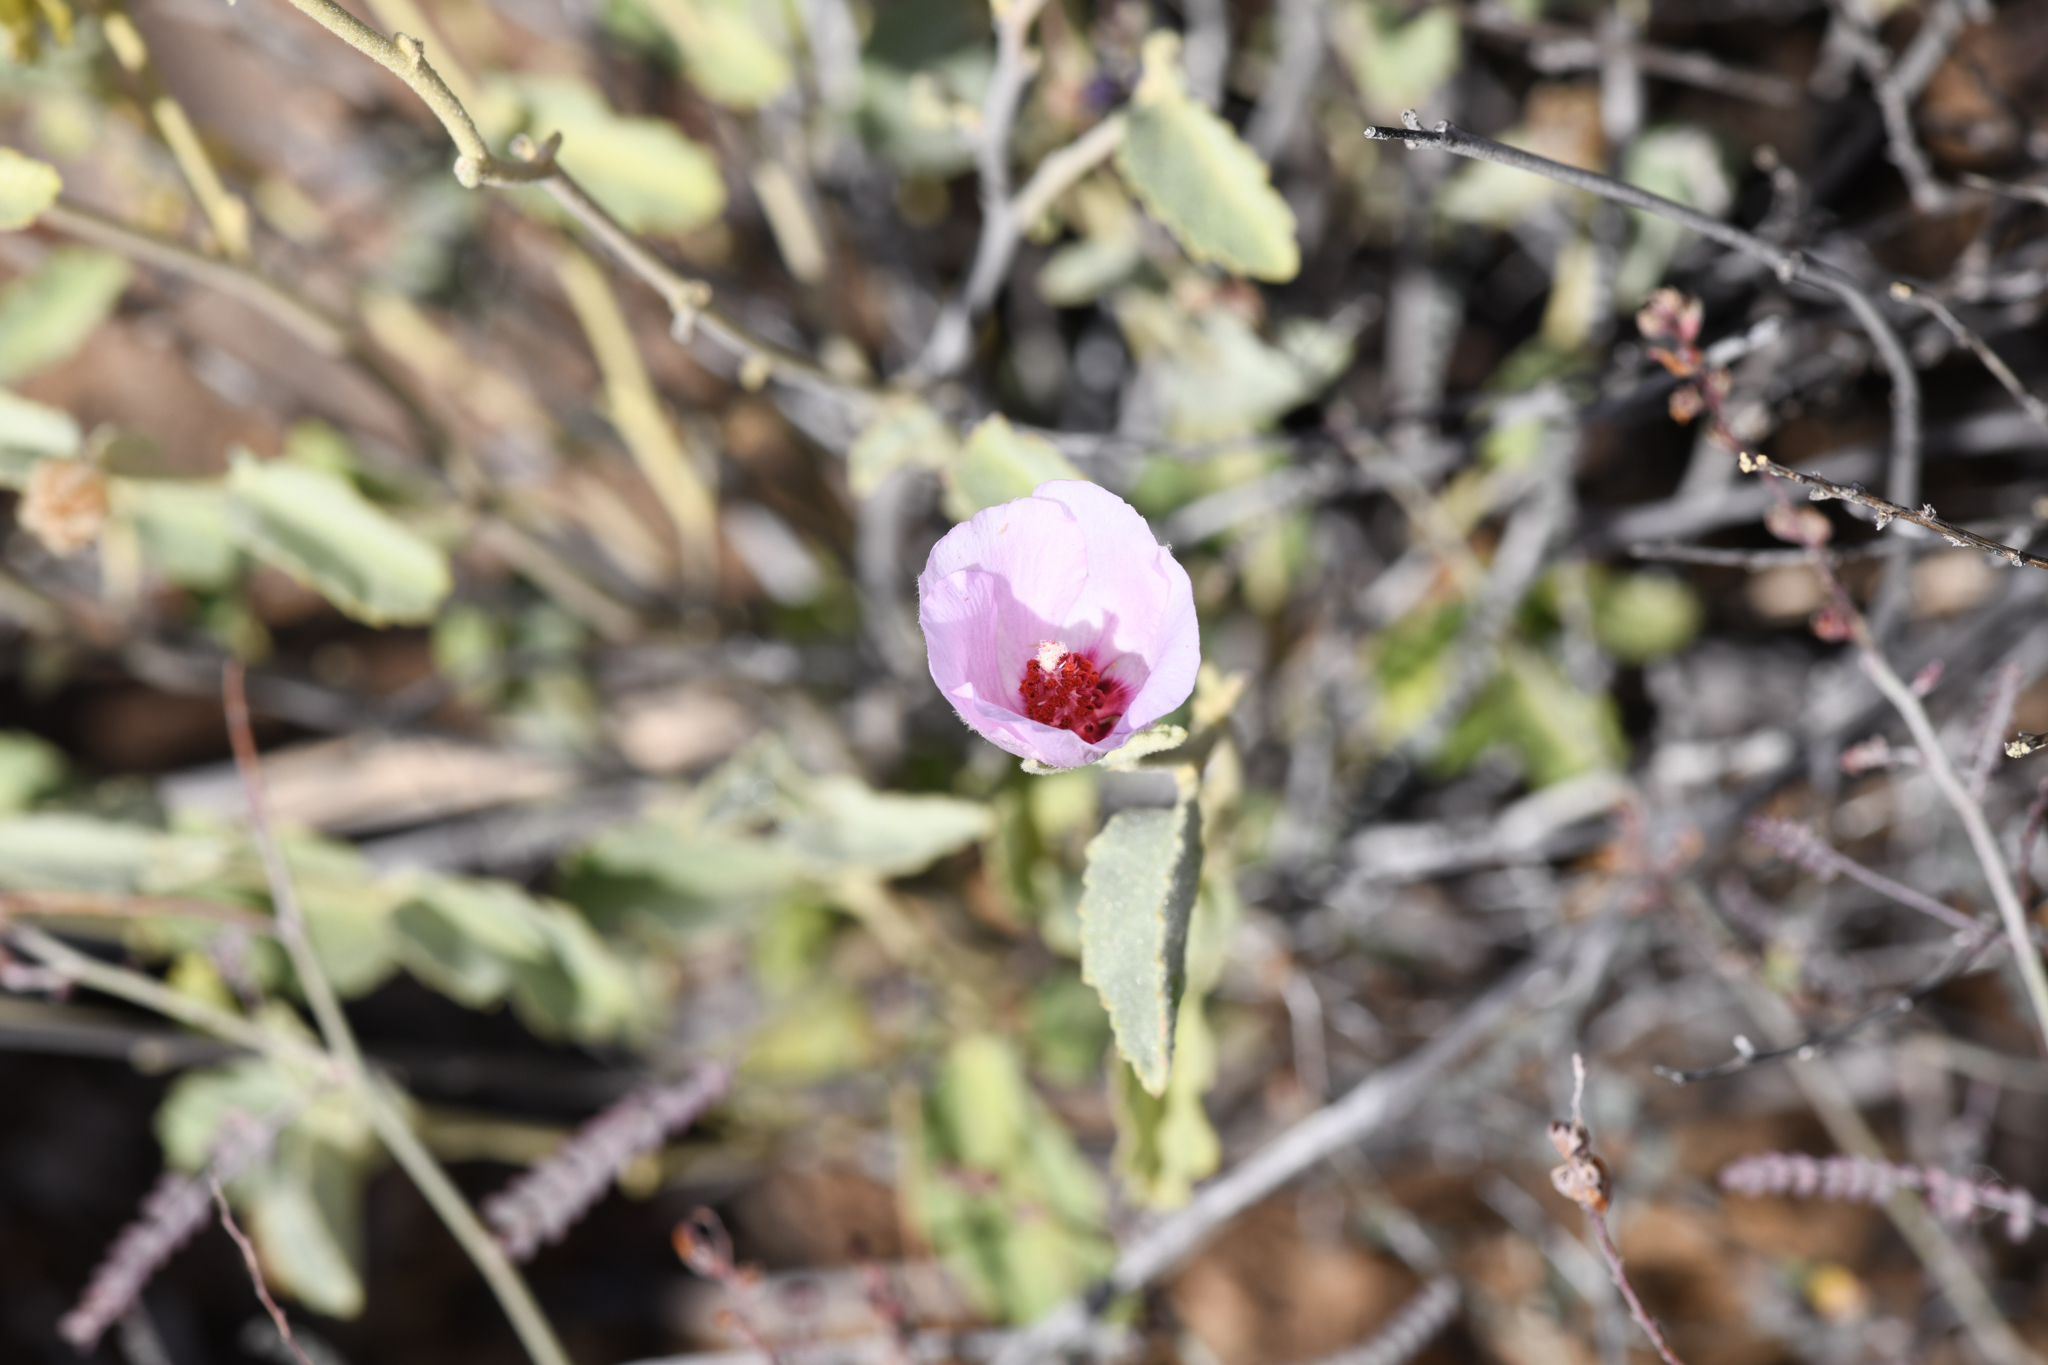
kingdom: Plantae
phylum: Tracheophyta
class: Magnoliopsida
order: Malvales
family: Malvaceae
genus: Hibiscus
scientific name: Hibiscus denudatus
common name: Paleface
